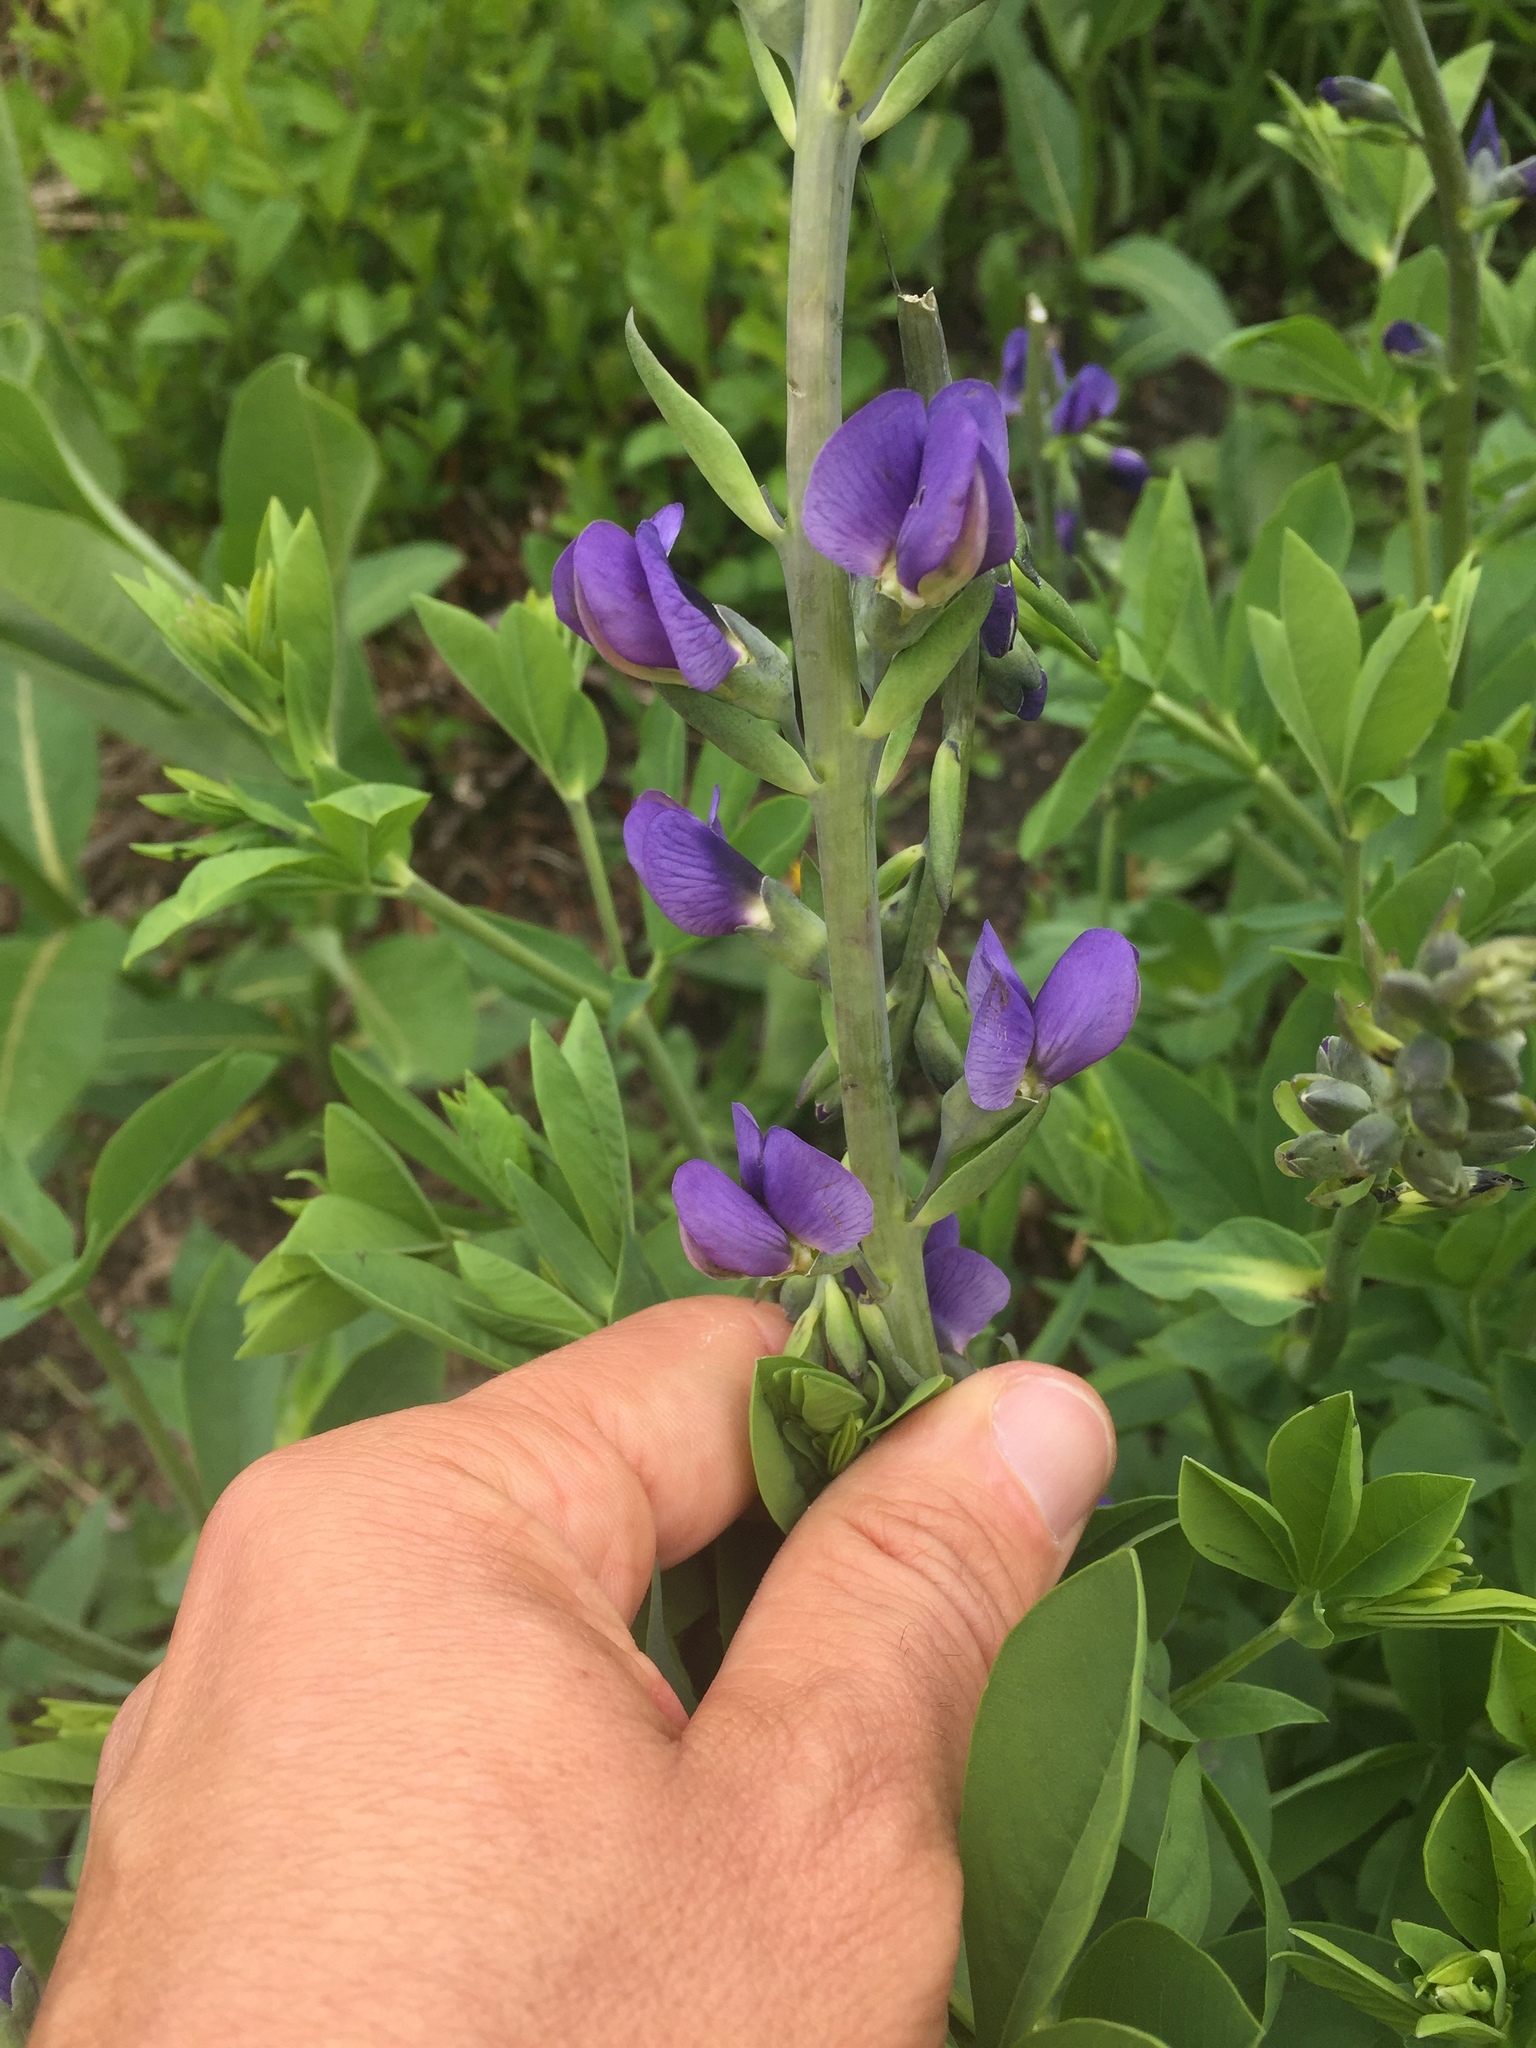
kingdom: Plantae
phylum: Tracheophyta
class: Magnoliopsida
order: Fabales
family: Fabaceae
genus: Baptisia
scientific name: Baptisia australis
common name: Blue false indigo
